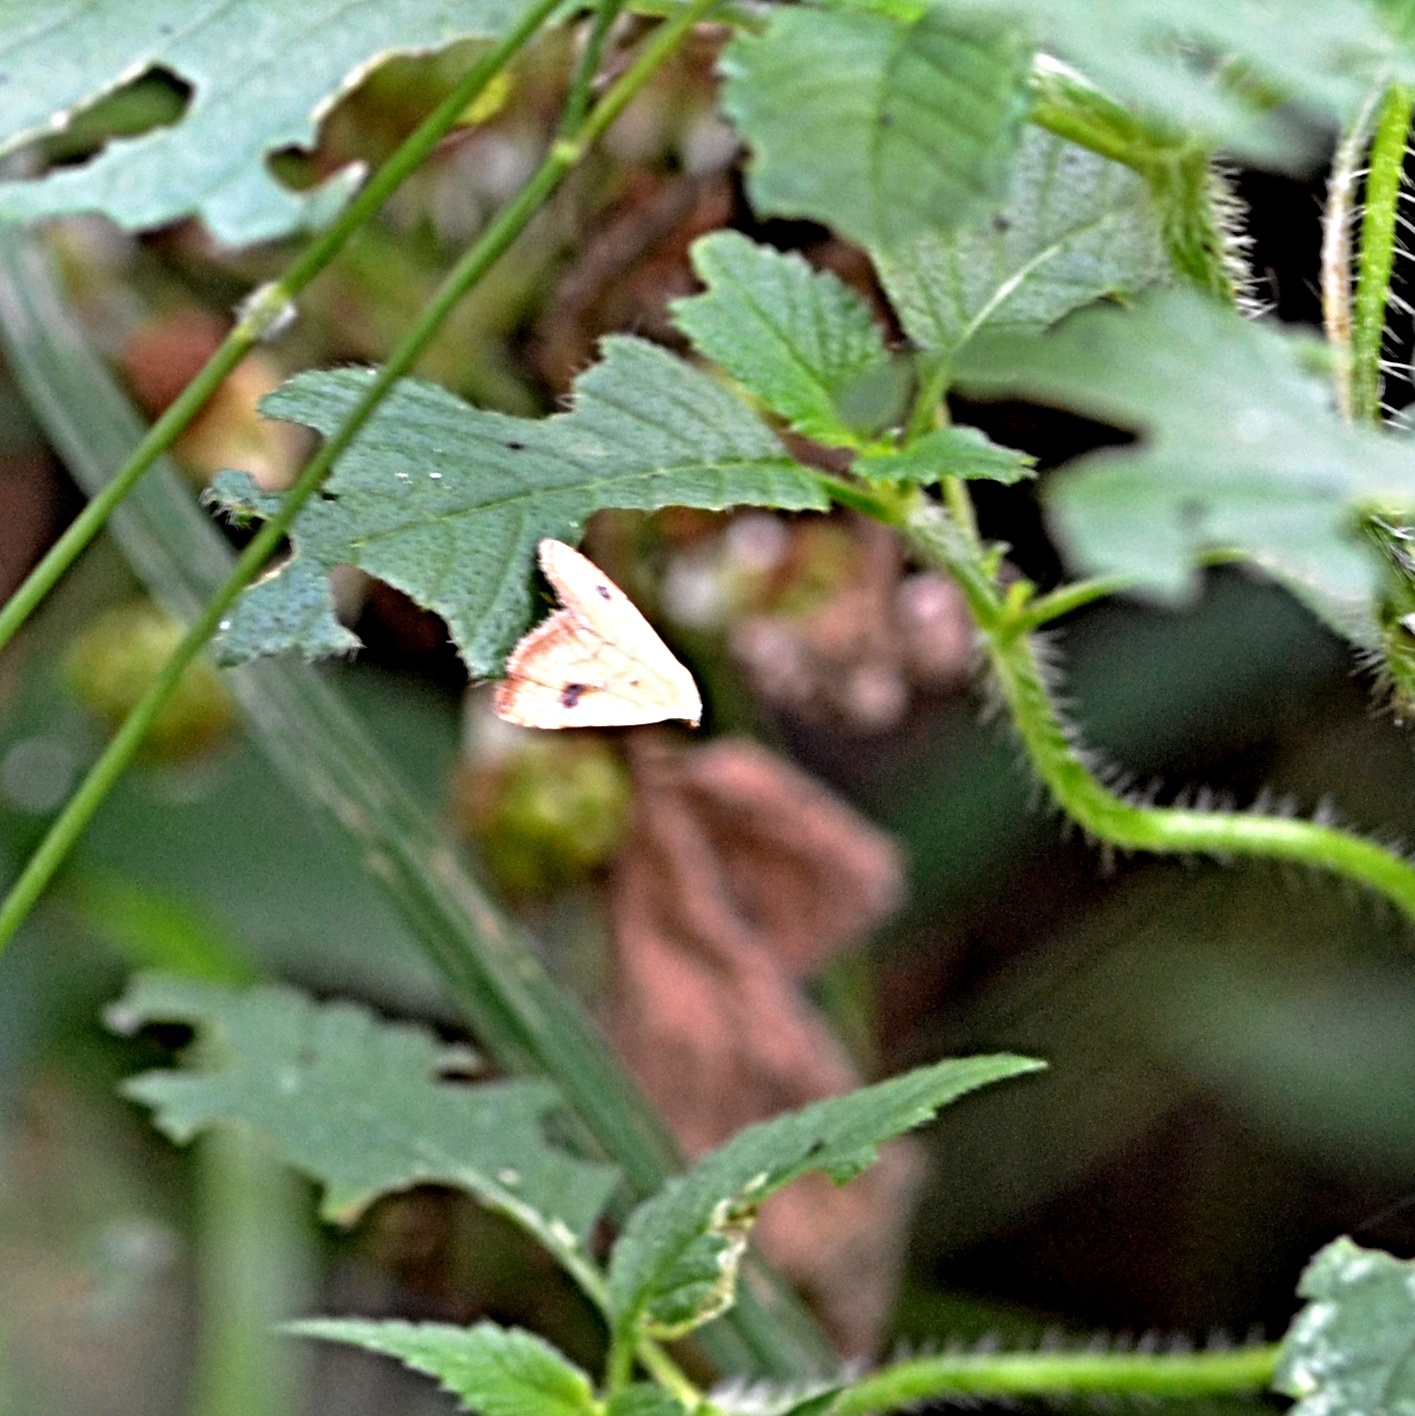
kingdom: Animalia
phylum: Arthropoda
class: Insecta
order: Lepidoptera
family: Erebidae
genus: Rivula
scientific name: Rivula sericealis
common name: Straw dot
